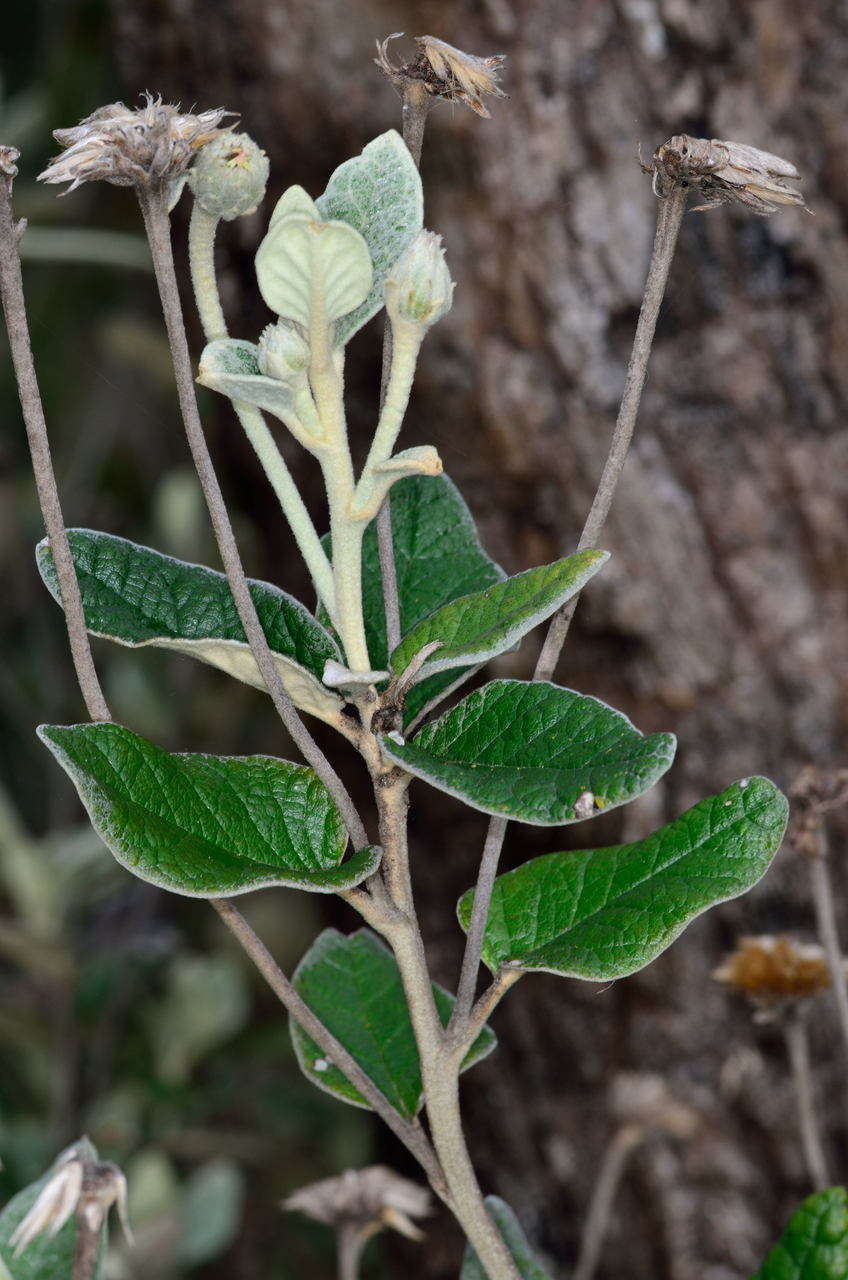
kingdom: Plantae
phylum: Tracheophyta
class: Magnoliopsida
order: Asterales
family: Asteraceae
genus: Olearia
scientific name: Olearia pannosa
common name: Velvet daisybush
